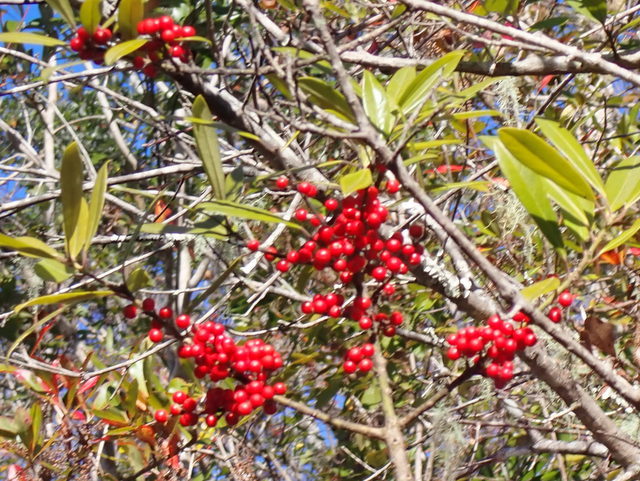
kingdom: Plantae
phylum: Tracheophyta
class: Magnoliopsida
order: Aquifoliales
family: Aquifoliaceae
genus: Ilex
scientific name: Ilex cassine
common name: Dahoon
